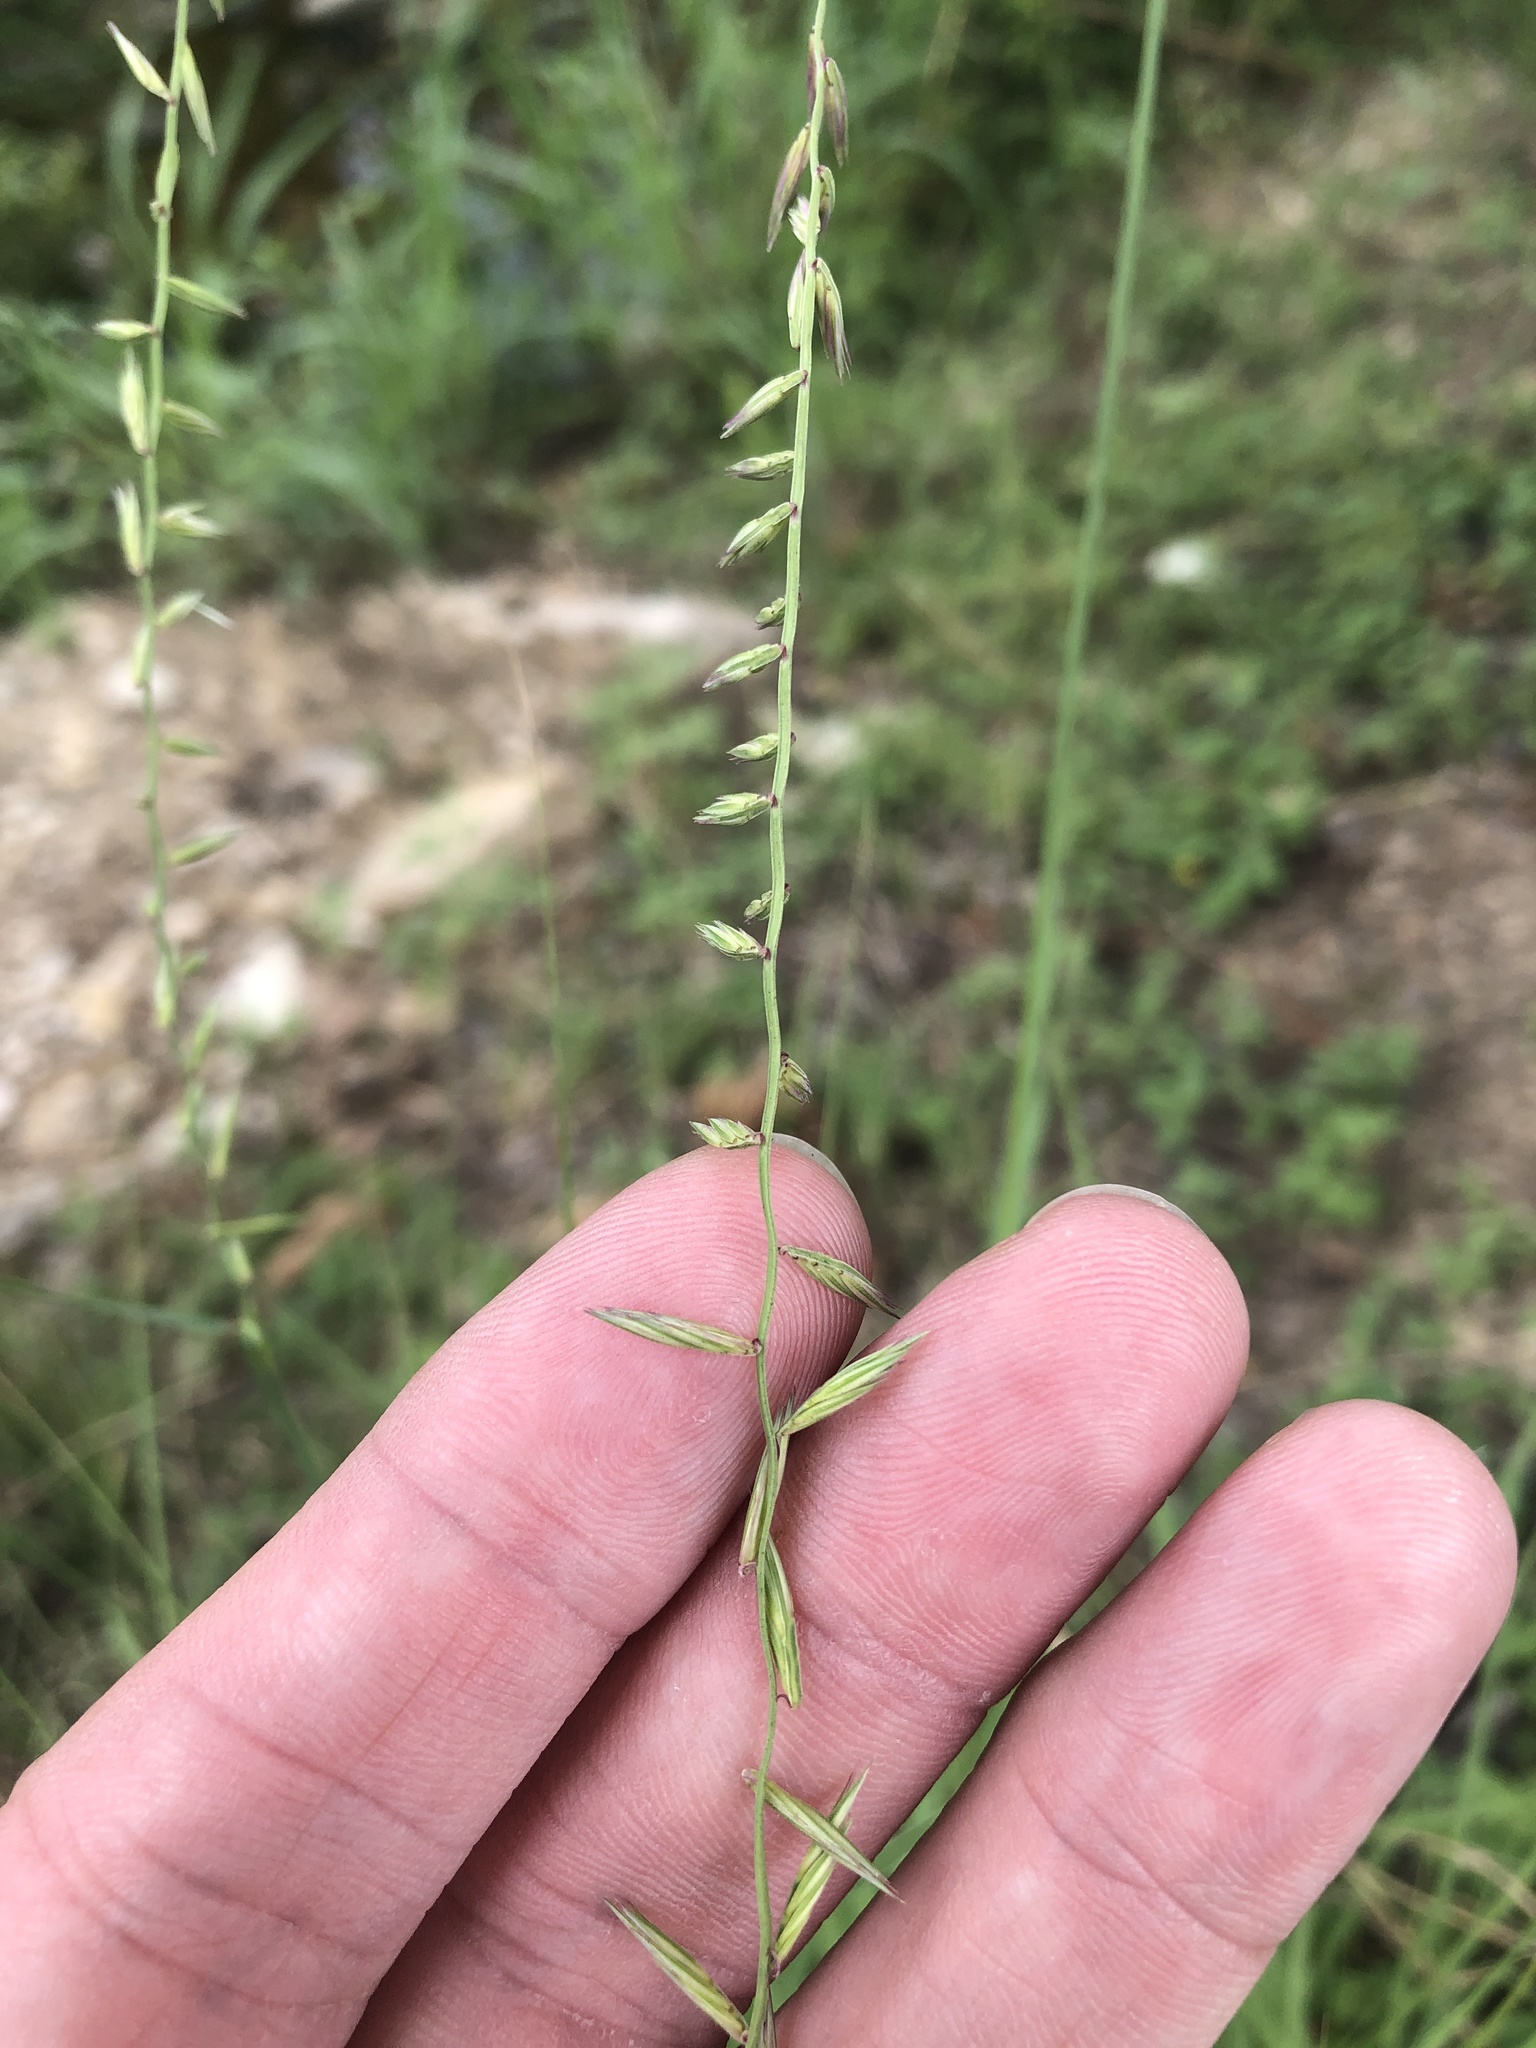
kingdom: Plantae
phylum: Tracheophyta
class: Liliopsida
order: Poales
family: Poaceae
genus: Bouteloua
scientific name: Bouteloua curtipendula
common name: Side-oats grama
